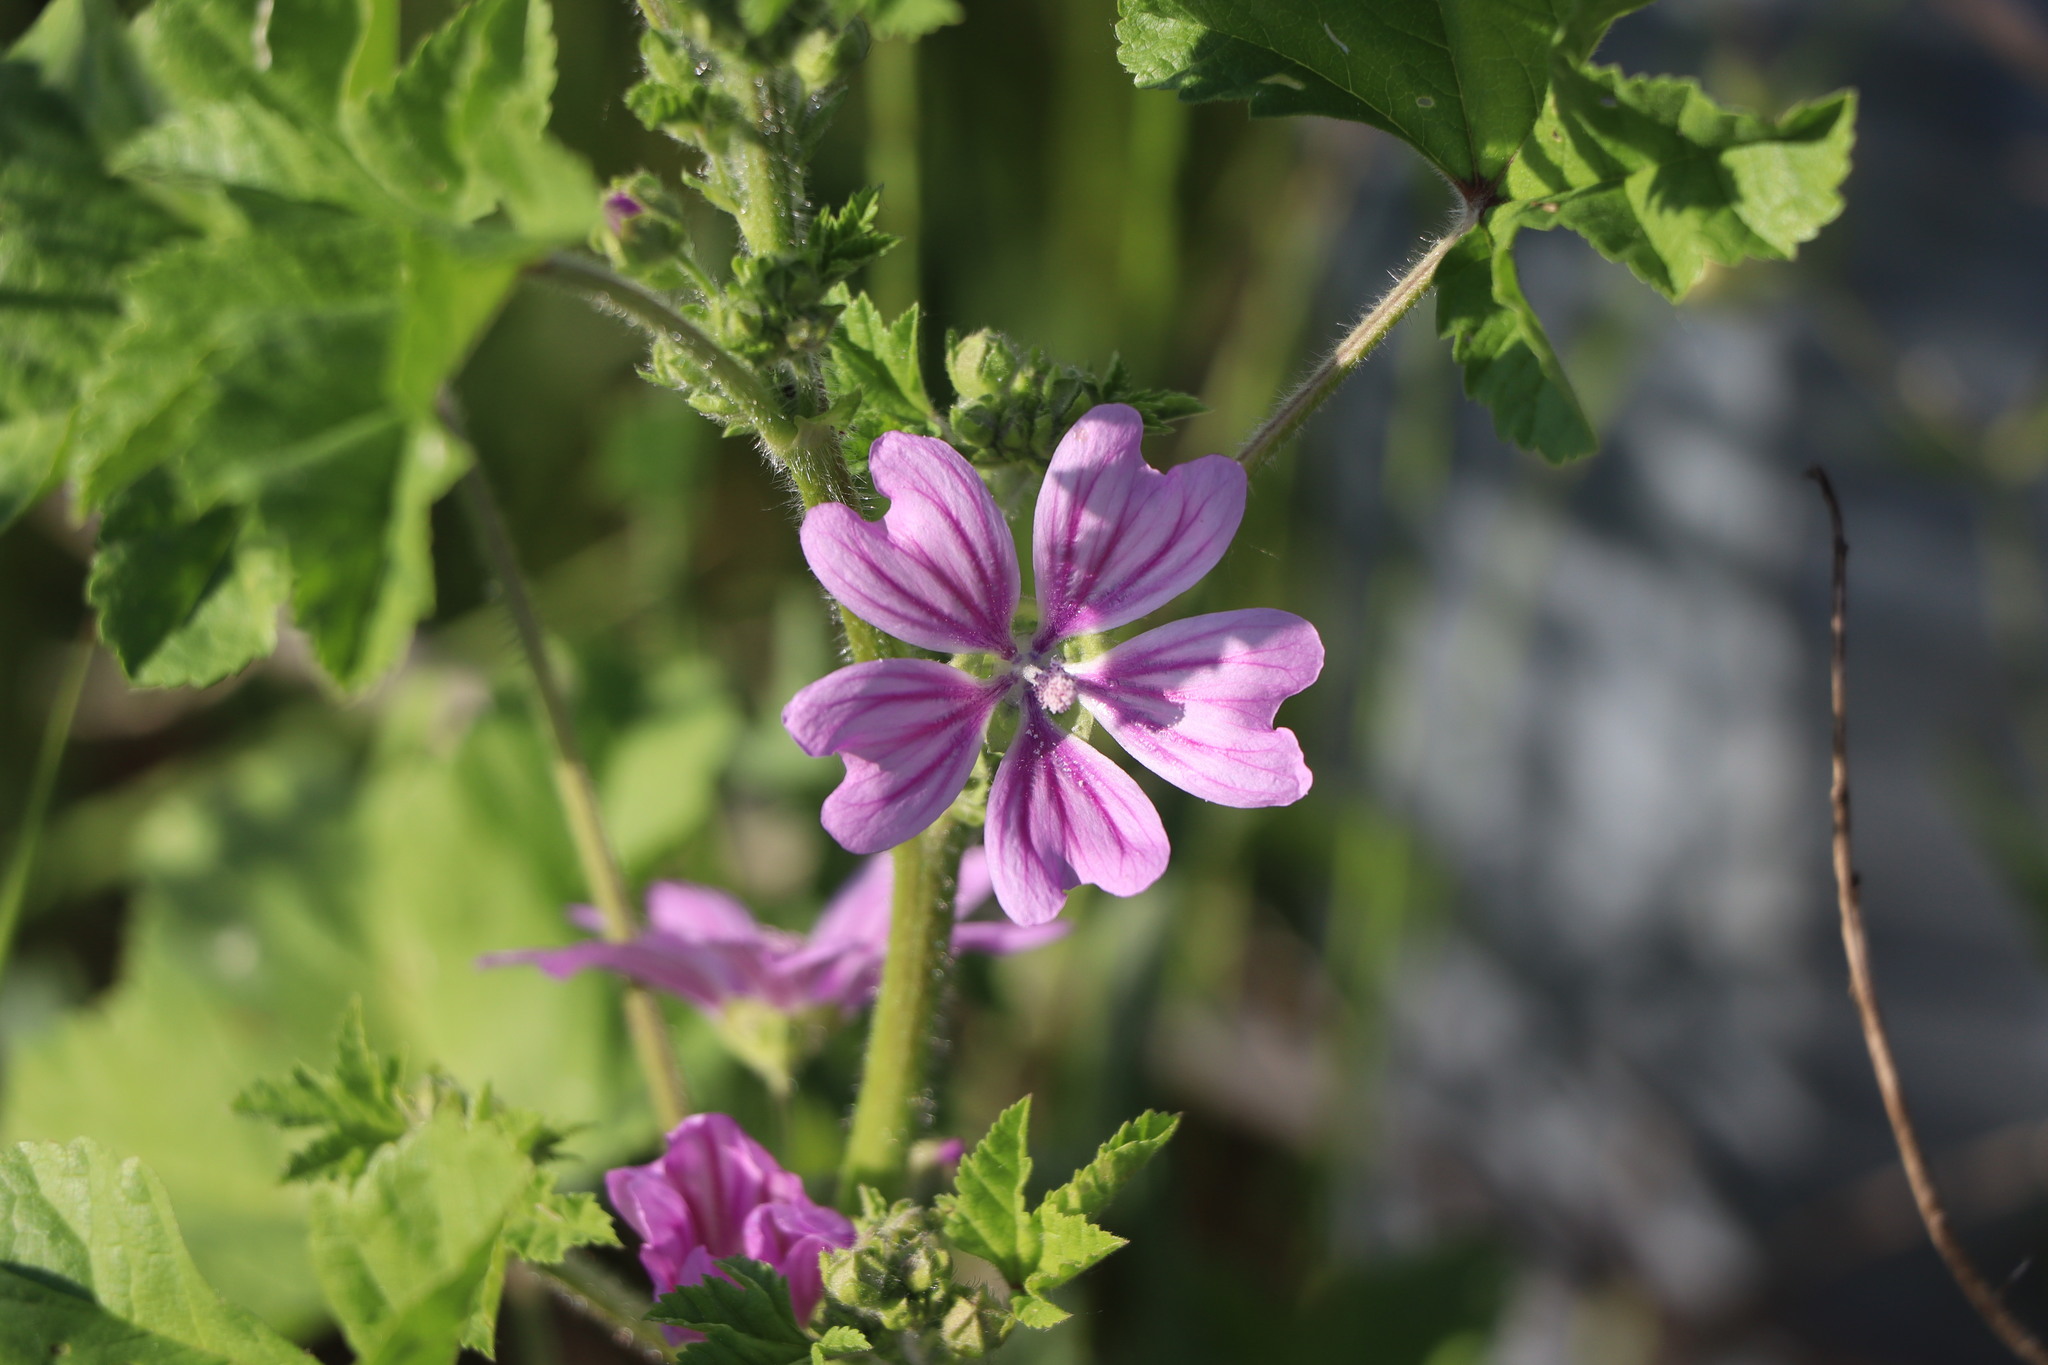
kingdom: Plantae
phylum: Tracheophyta
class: Magnoliopsida
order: Malvales
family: Malvaceae
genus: Malva
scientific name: Malva sylvestris
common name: Common mallow
